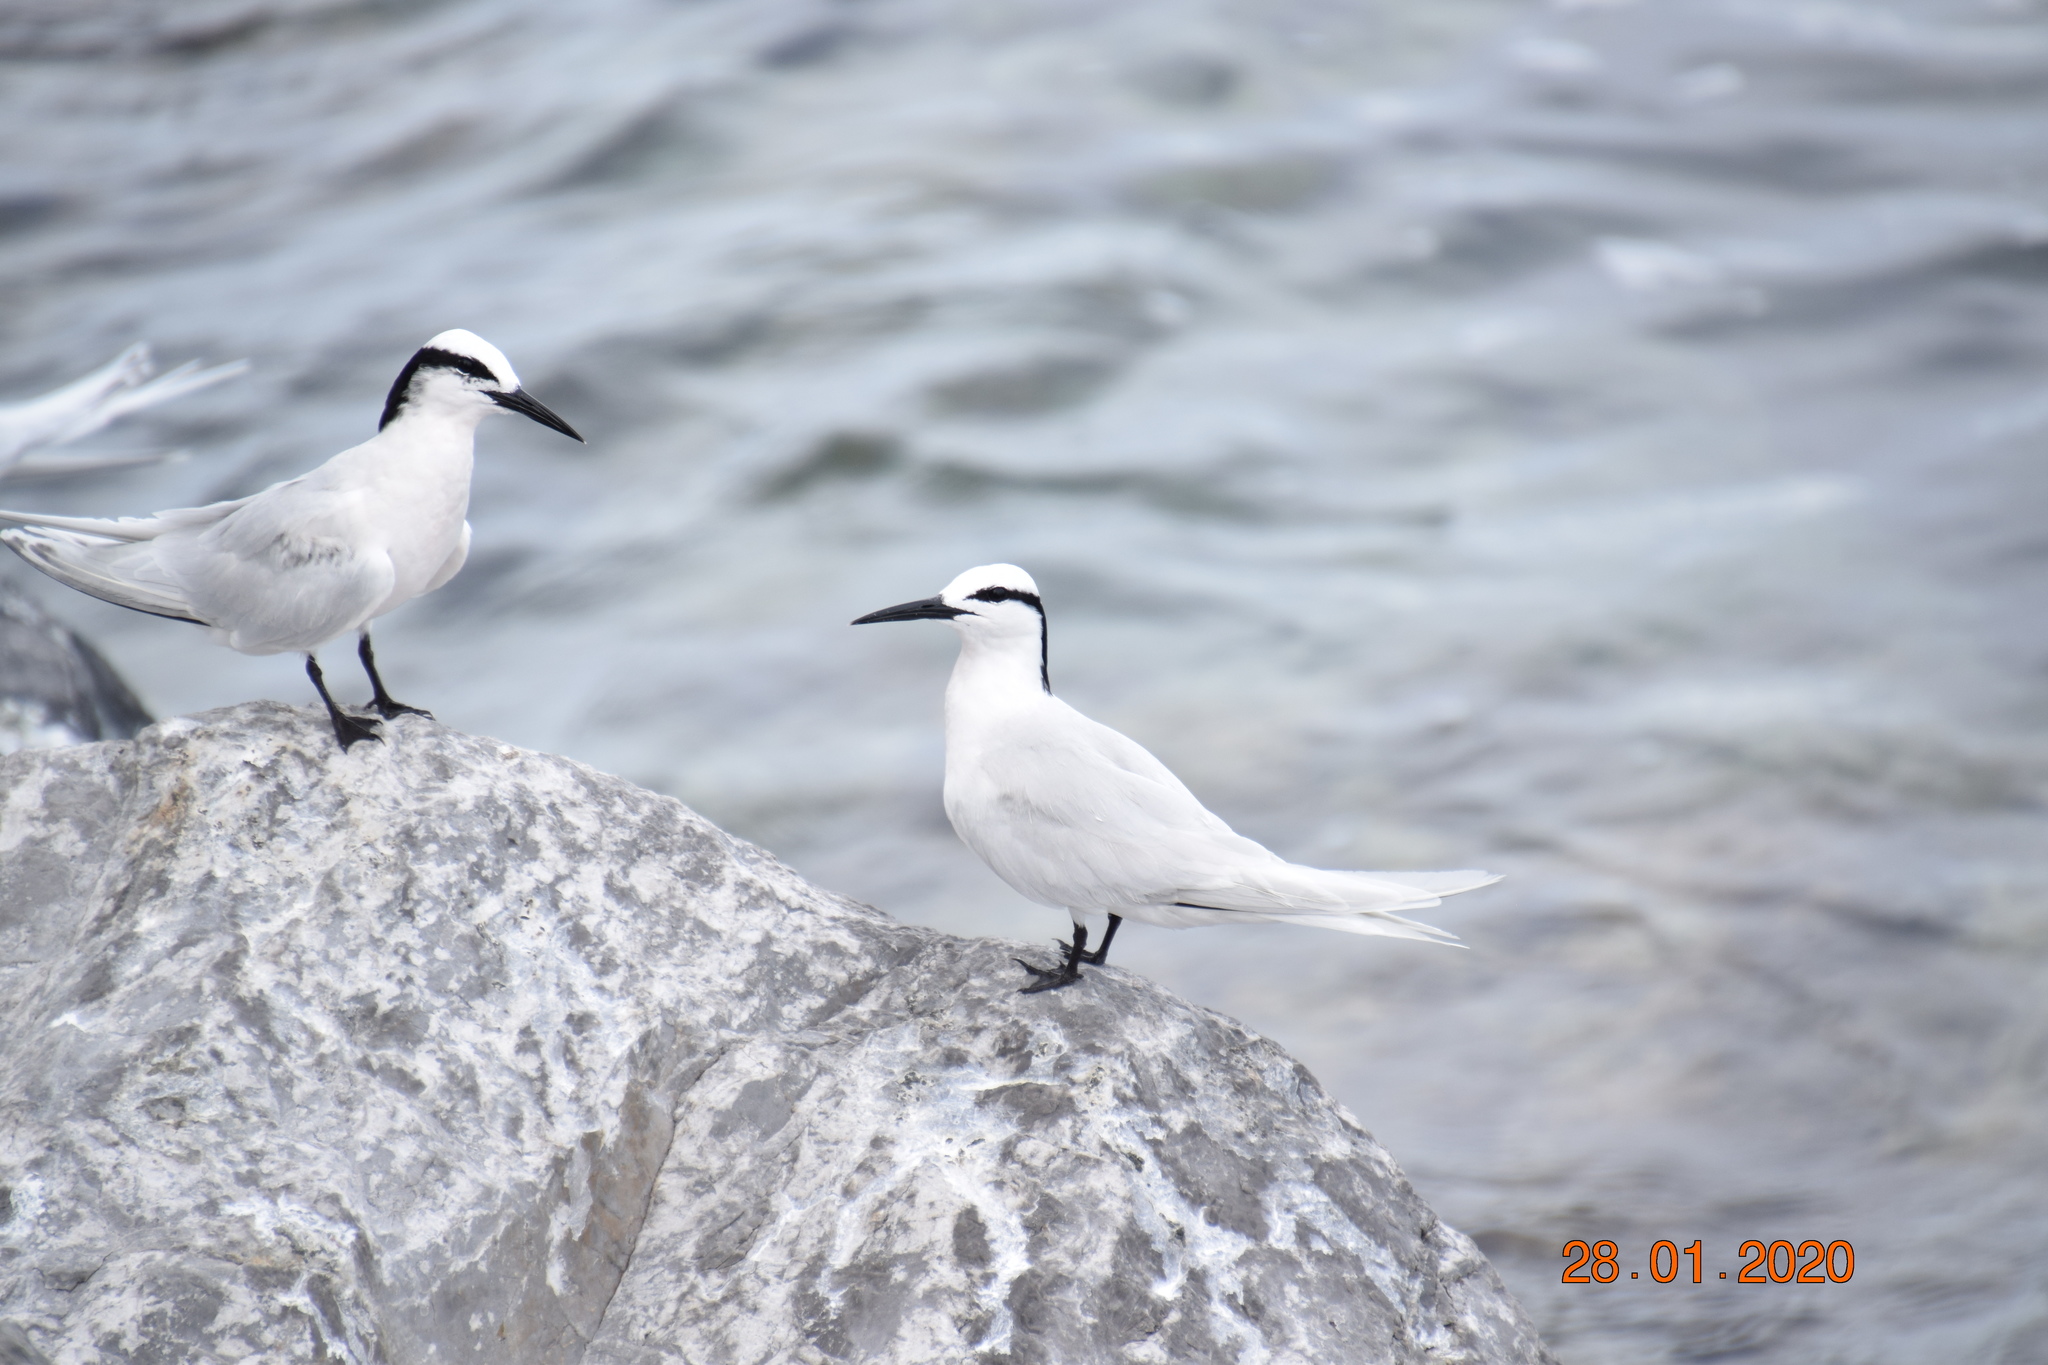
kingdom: Animalia
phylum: Chordata
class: Aves
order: Charadriiformes
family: Laridae
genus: Sterna
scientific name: Sterna sumatrana
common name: Black-naped tern
